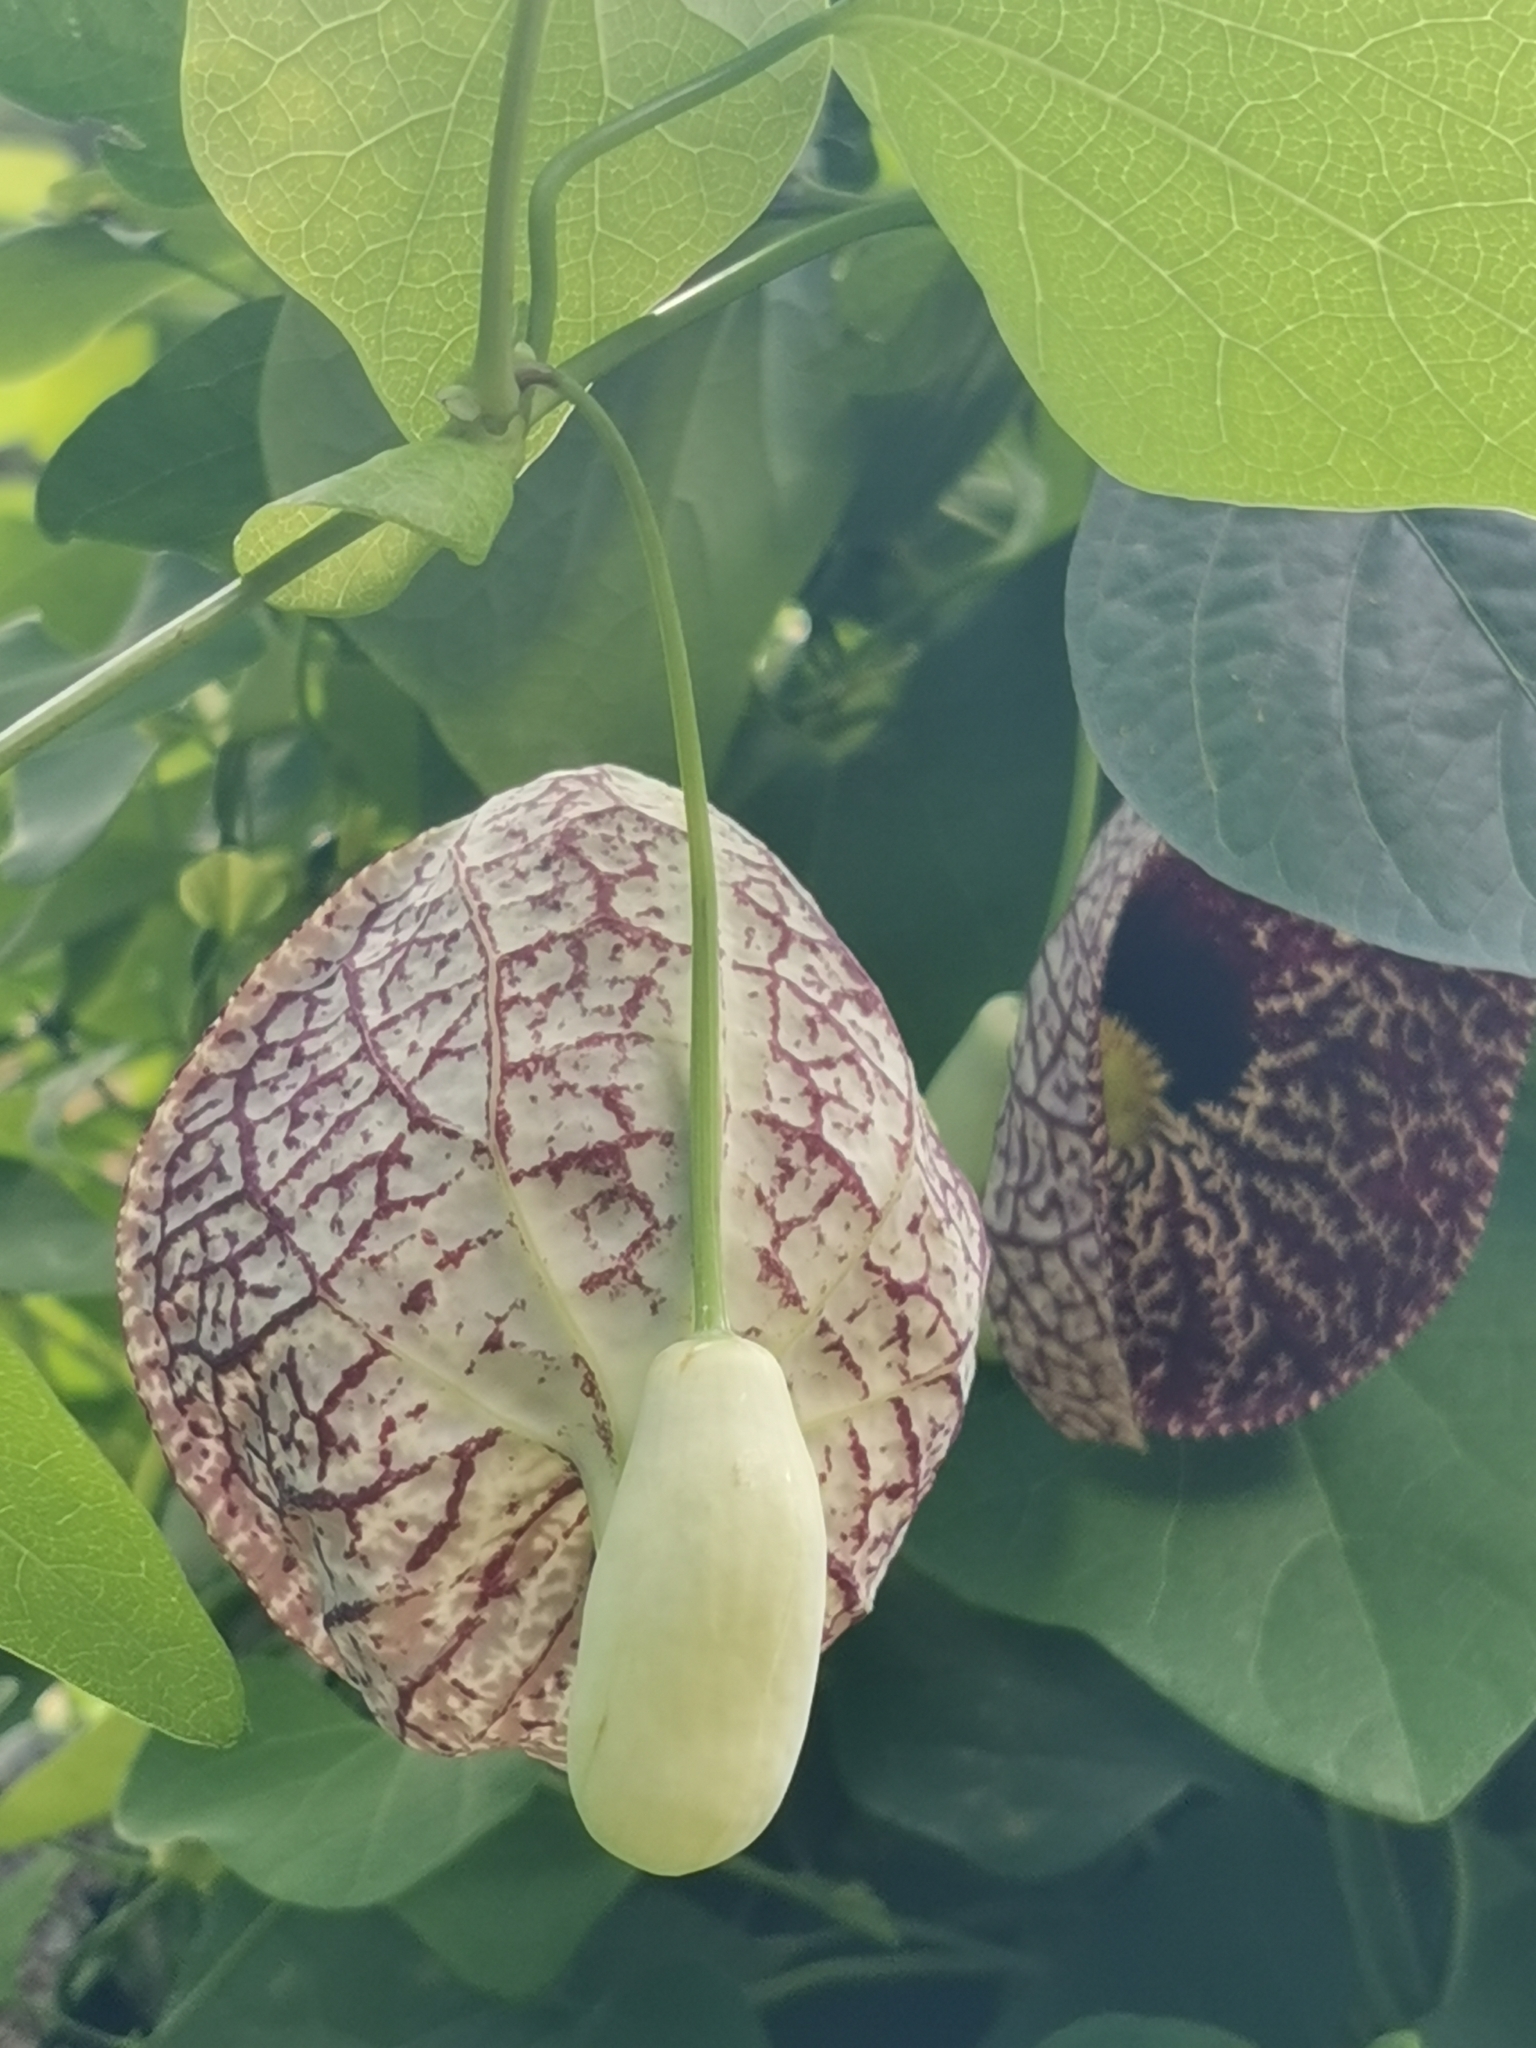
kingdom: Plantae
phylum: Tracheophyta
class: Magnoliopsida
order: Piperales
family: Aristolochiaceae
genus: Aristolochia
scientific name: Aristolochia littoralis
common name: Duck
